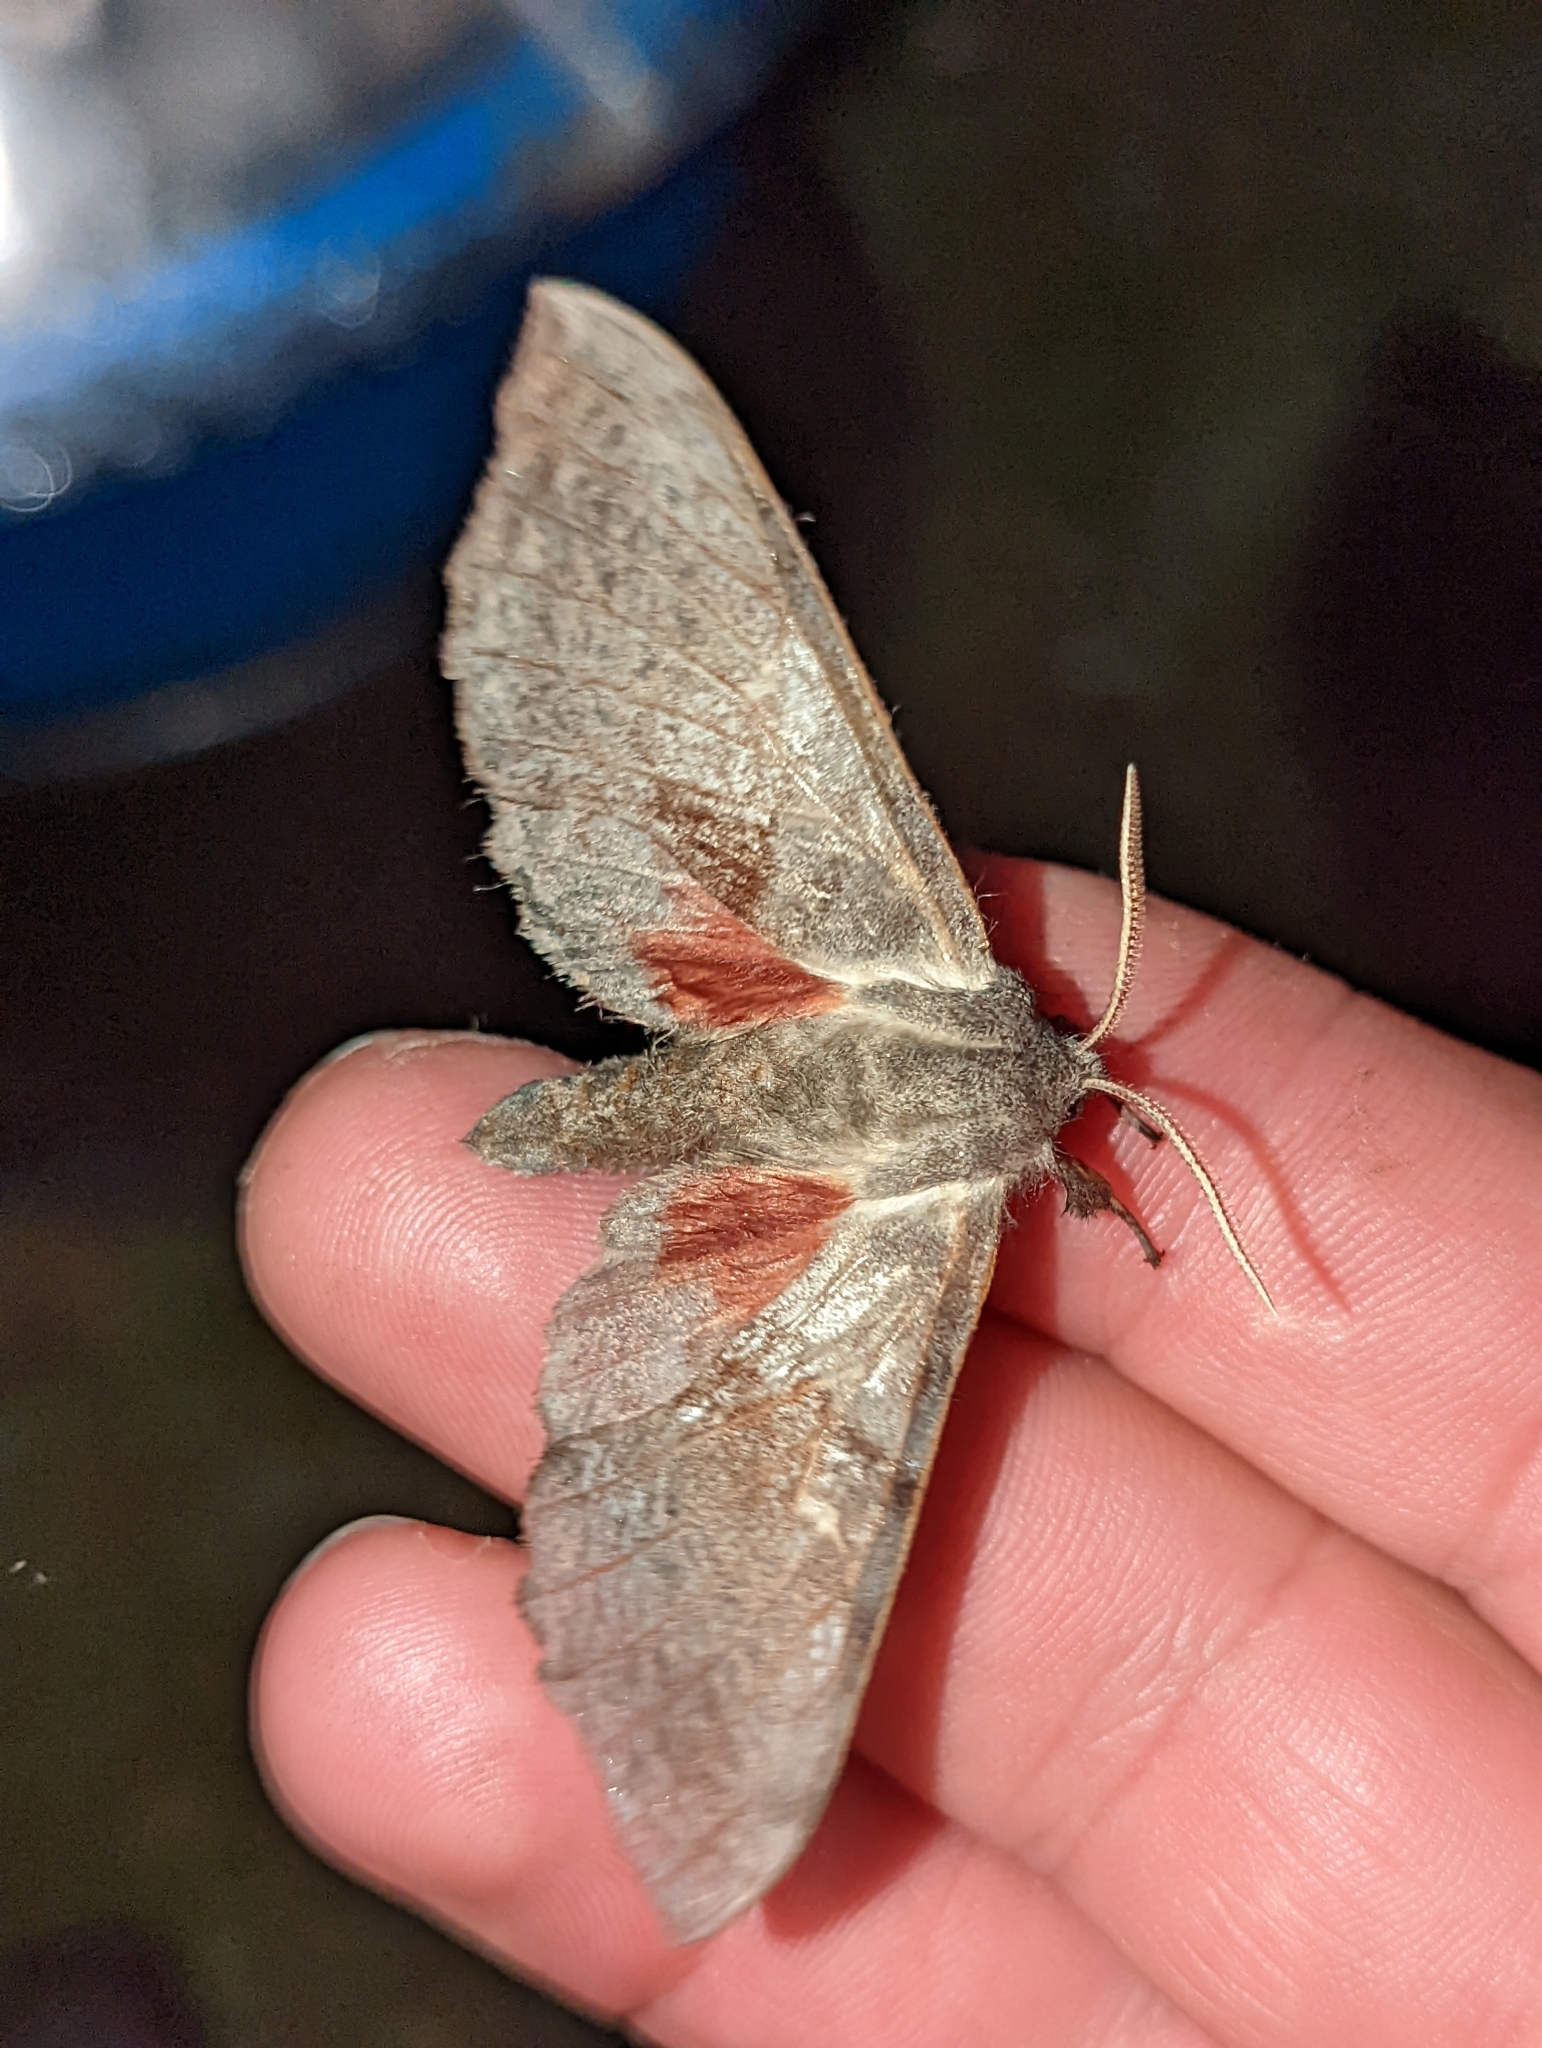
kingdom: Animalia
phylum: Arthropoda
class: Insecta
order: Lepidoptera
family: Sphingidae
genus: Laothoe
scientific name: Laothoe populi
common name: Poplar hawk-moth
